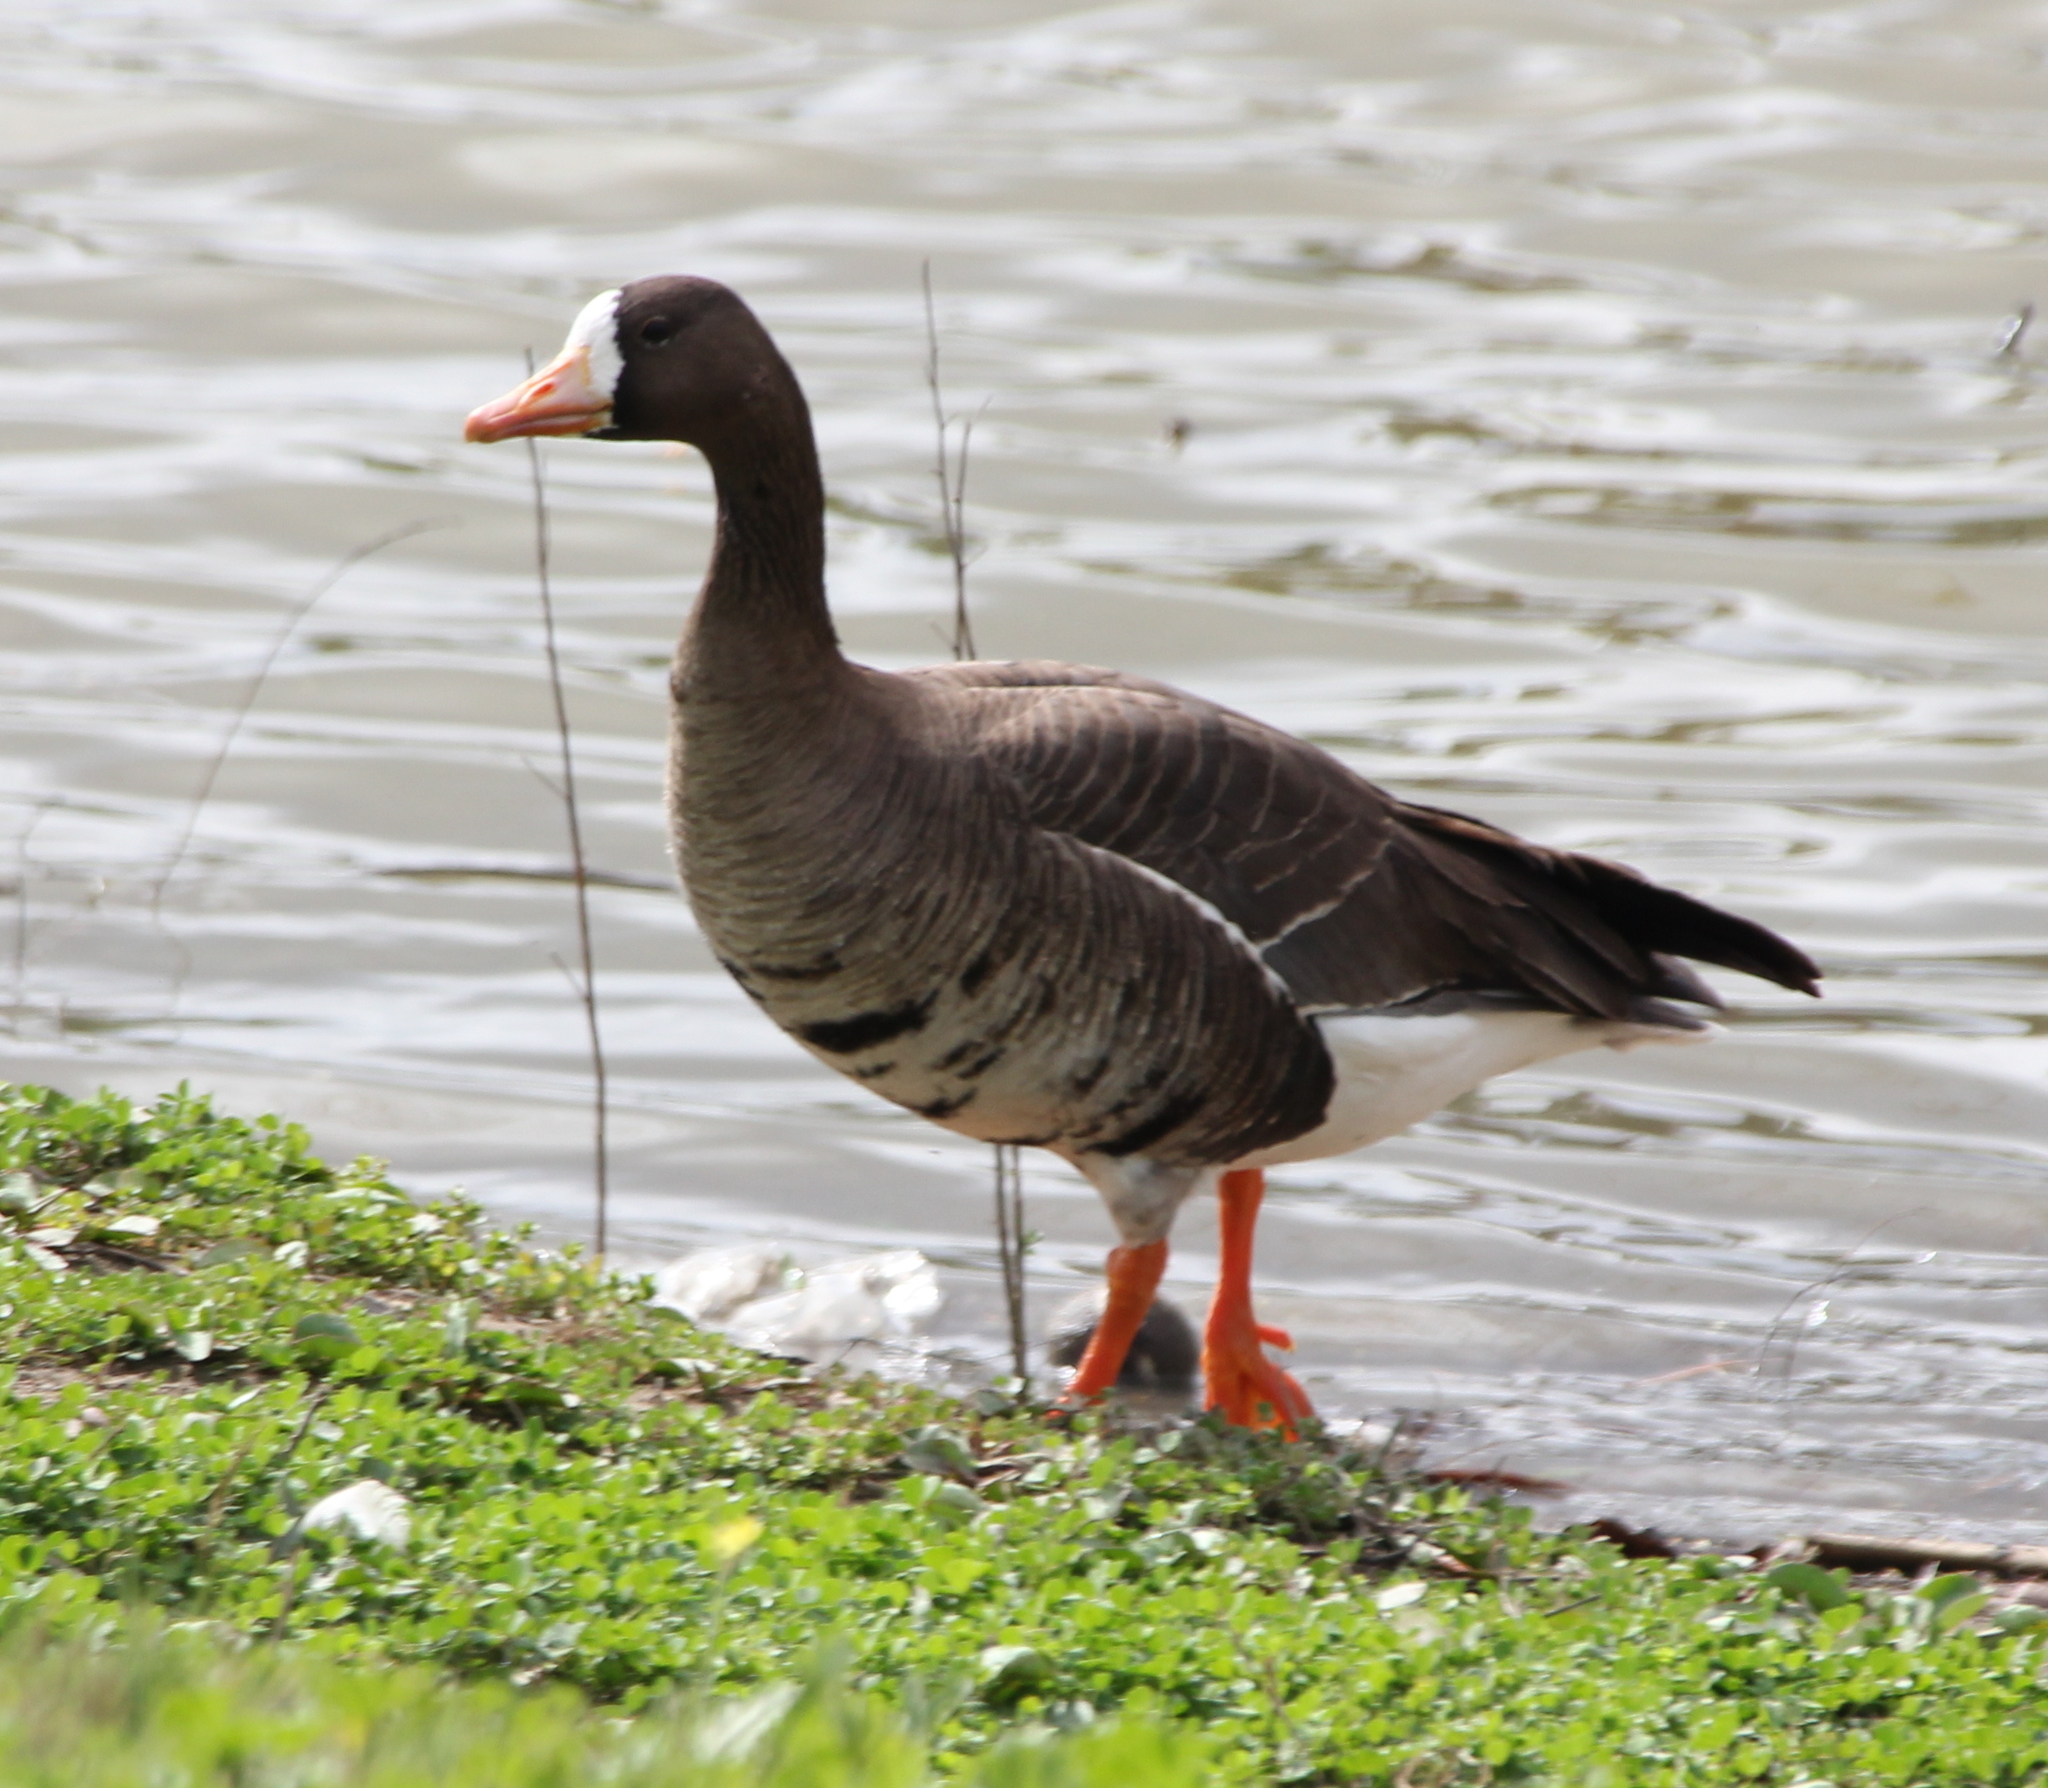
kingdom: Animalia
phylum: Chordata
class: Aves
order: Anseriformes
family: Anatidae
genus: Anser
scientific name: Anser albifrons
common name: Greater white-fronted goose
